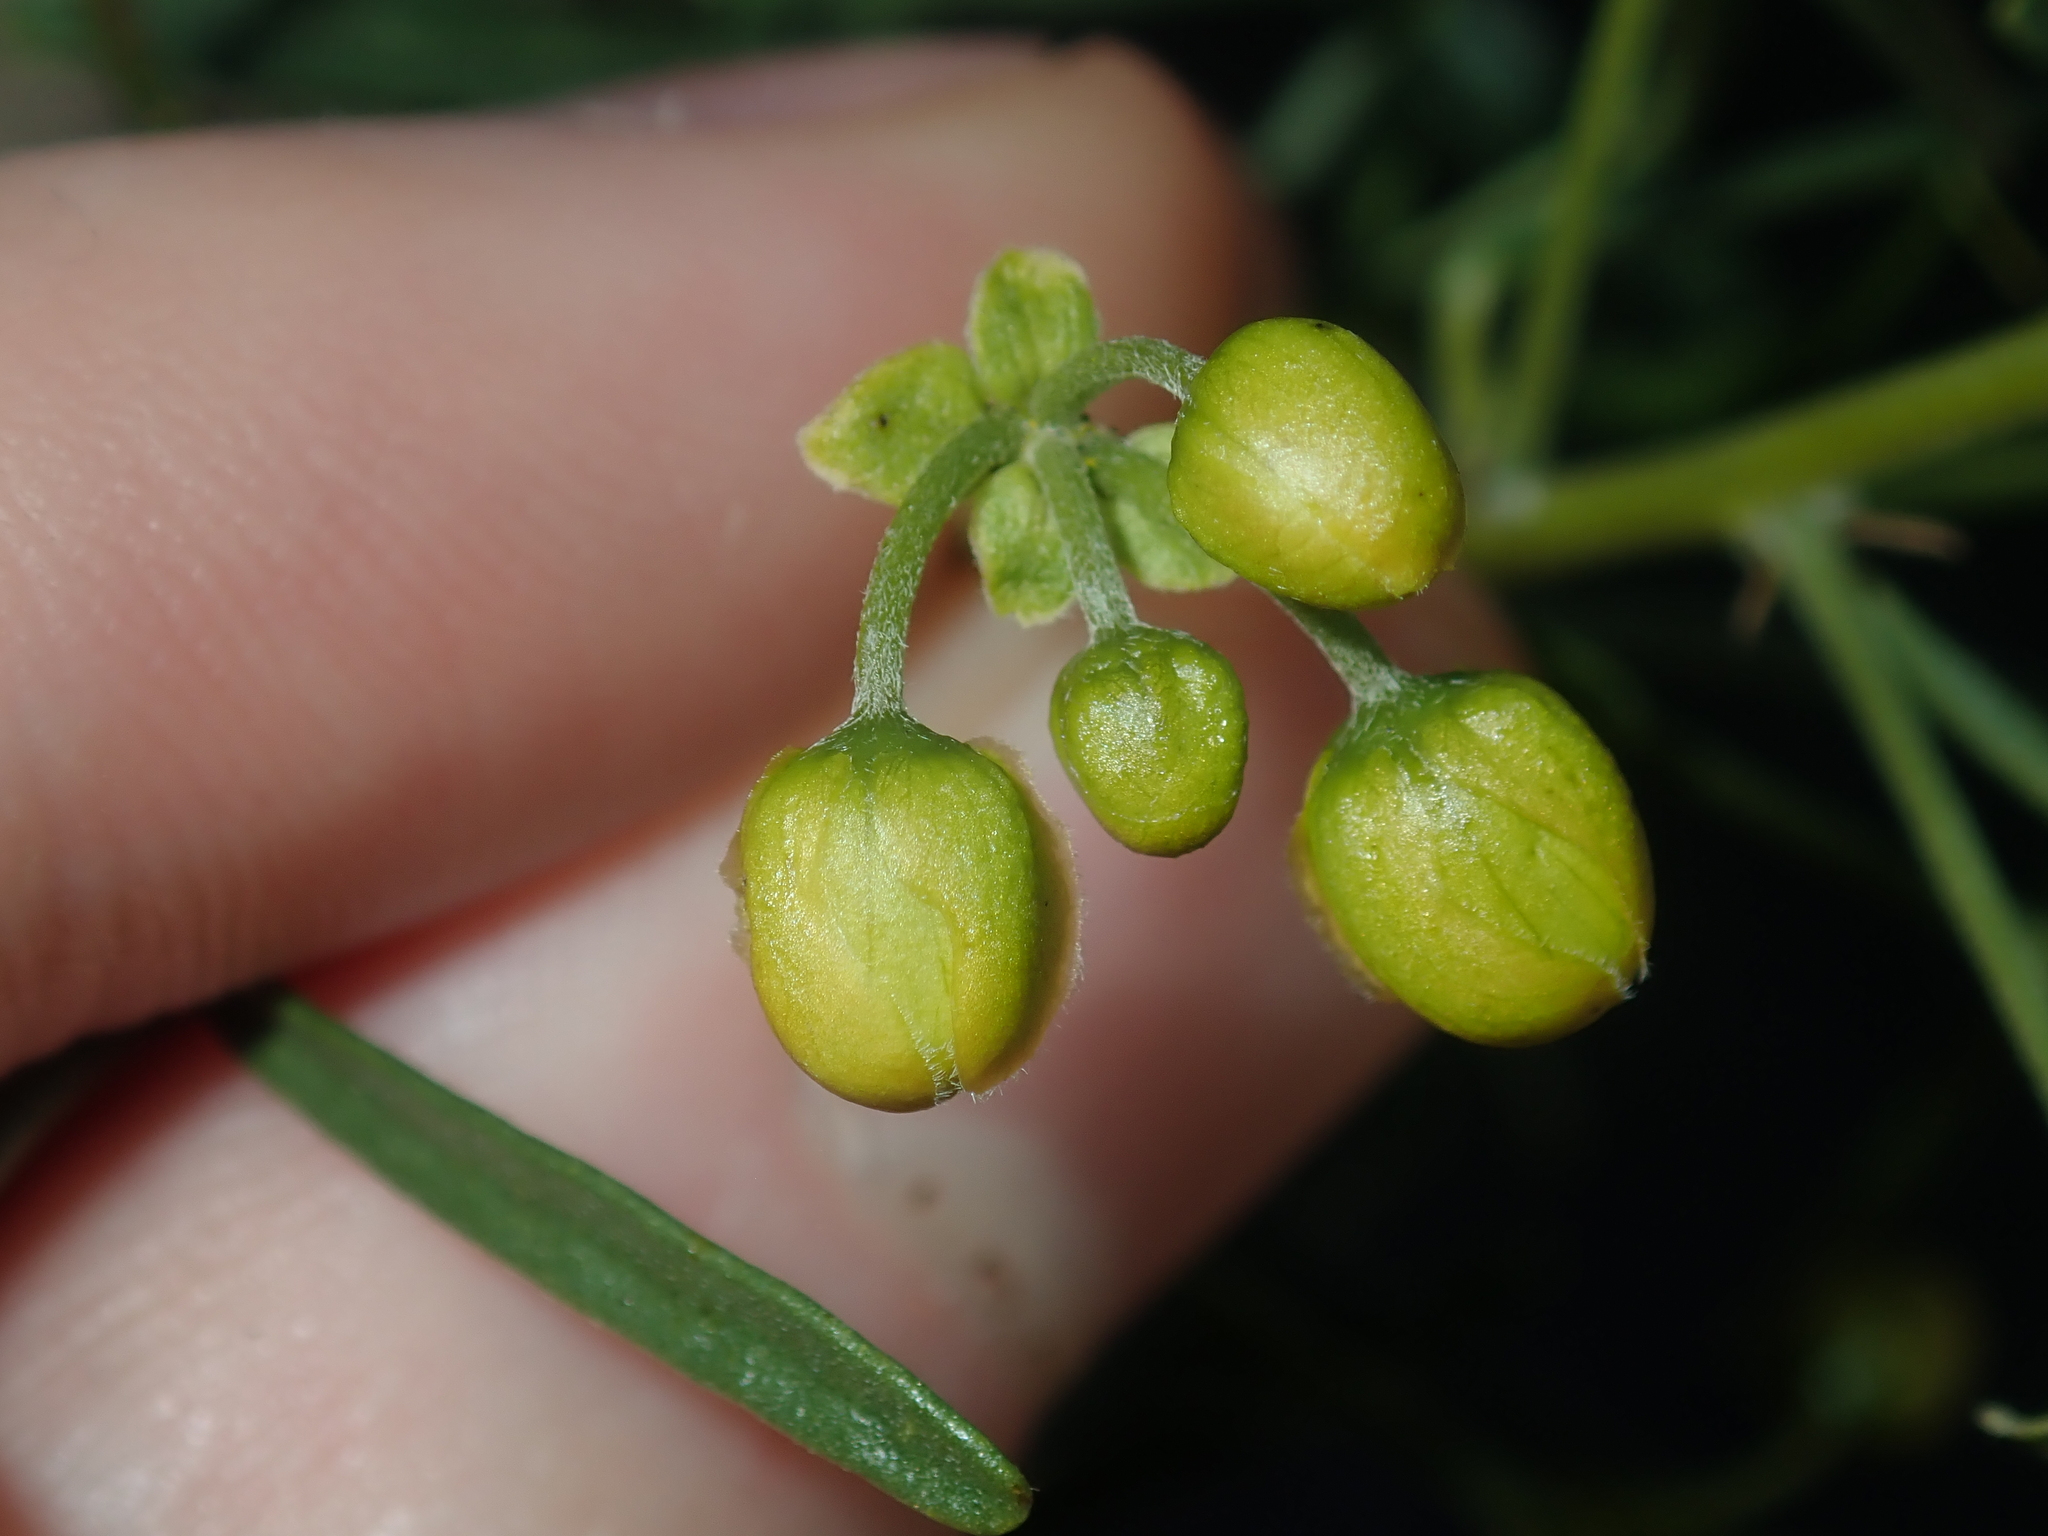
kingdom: Plantae
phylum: Tracheophyta
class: Magnoliopsida
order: Fabales
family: Fabaceae
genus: Senna
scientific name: Senna glutinosa
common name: Green acacia
